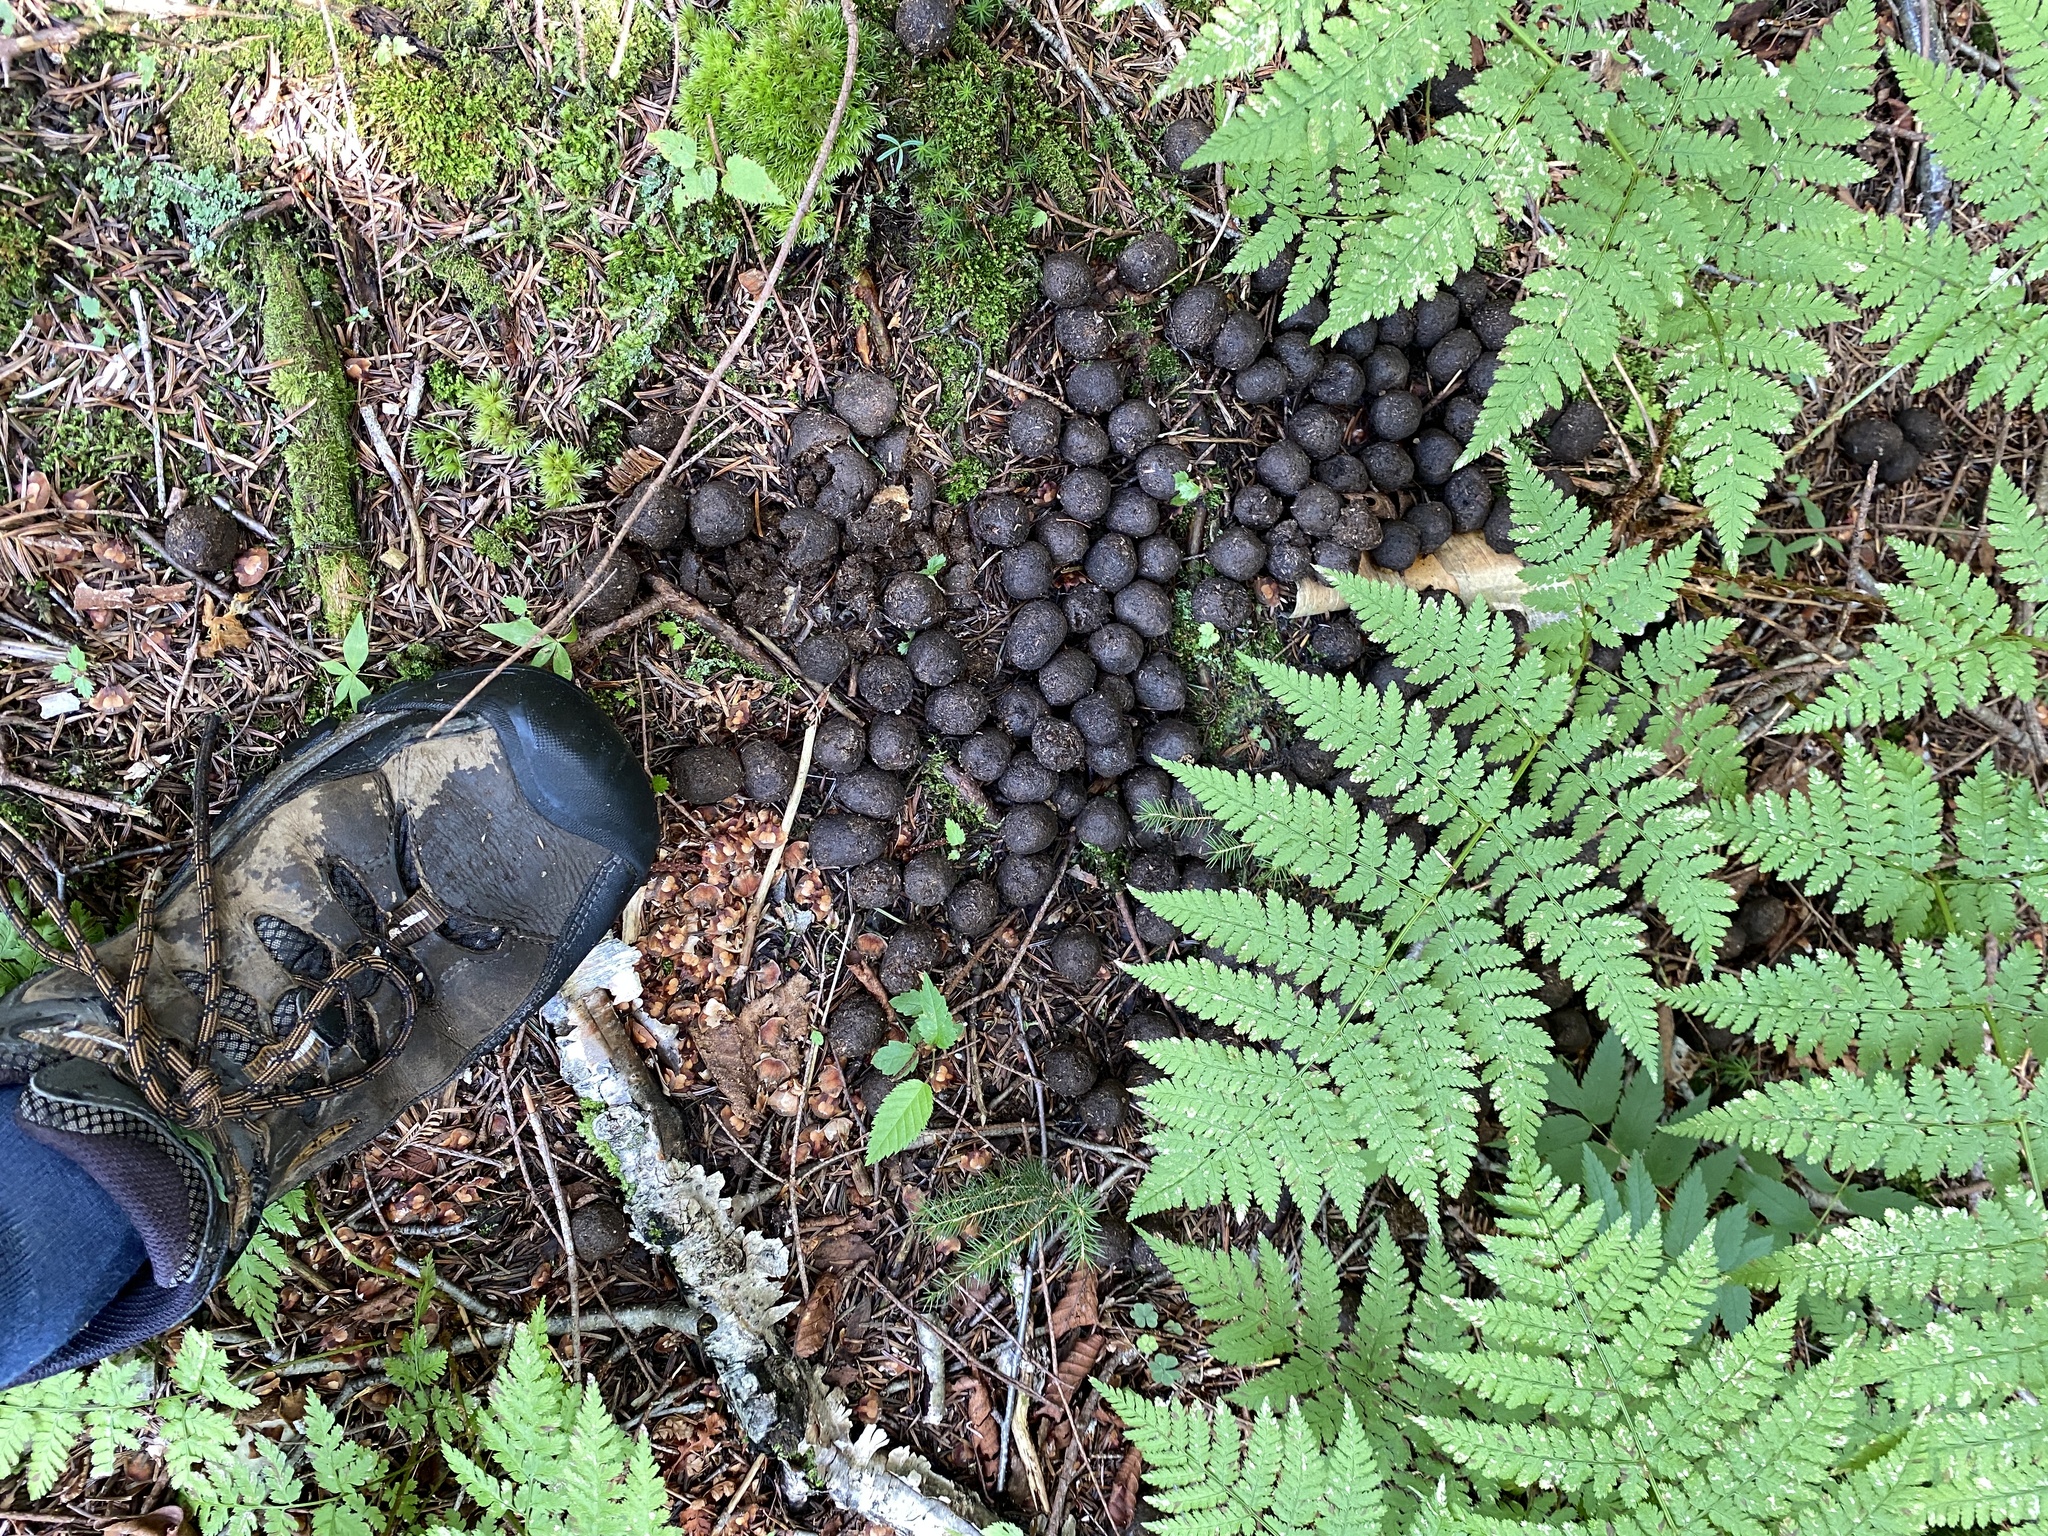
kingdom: Animalia
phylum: Chordata
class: Mammalia
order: Artiodactyla
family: Cervidae
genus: Alces
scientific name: Alces alces
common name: Moose
